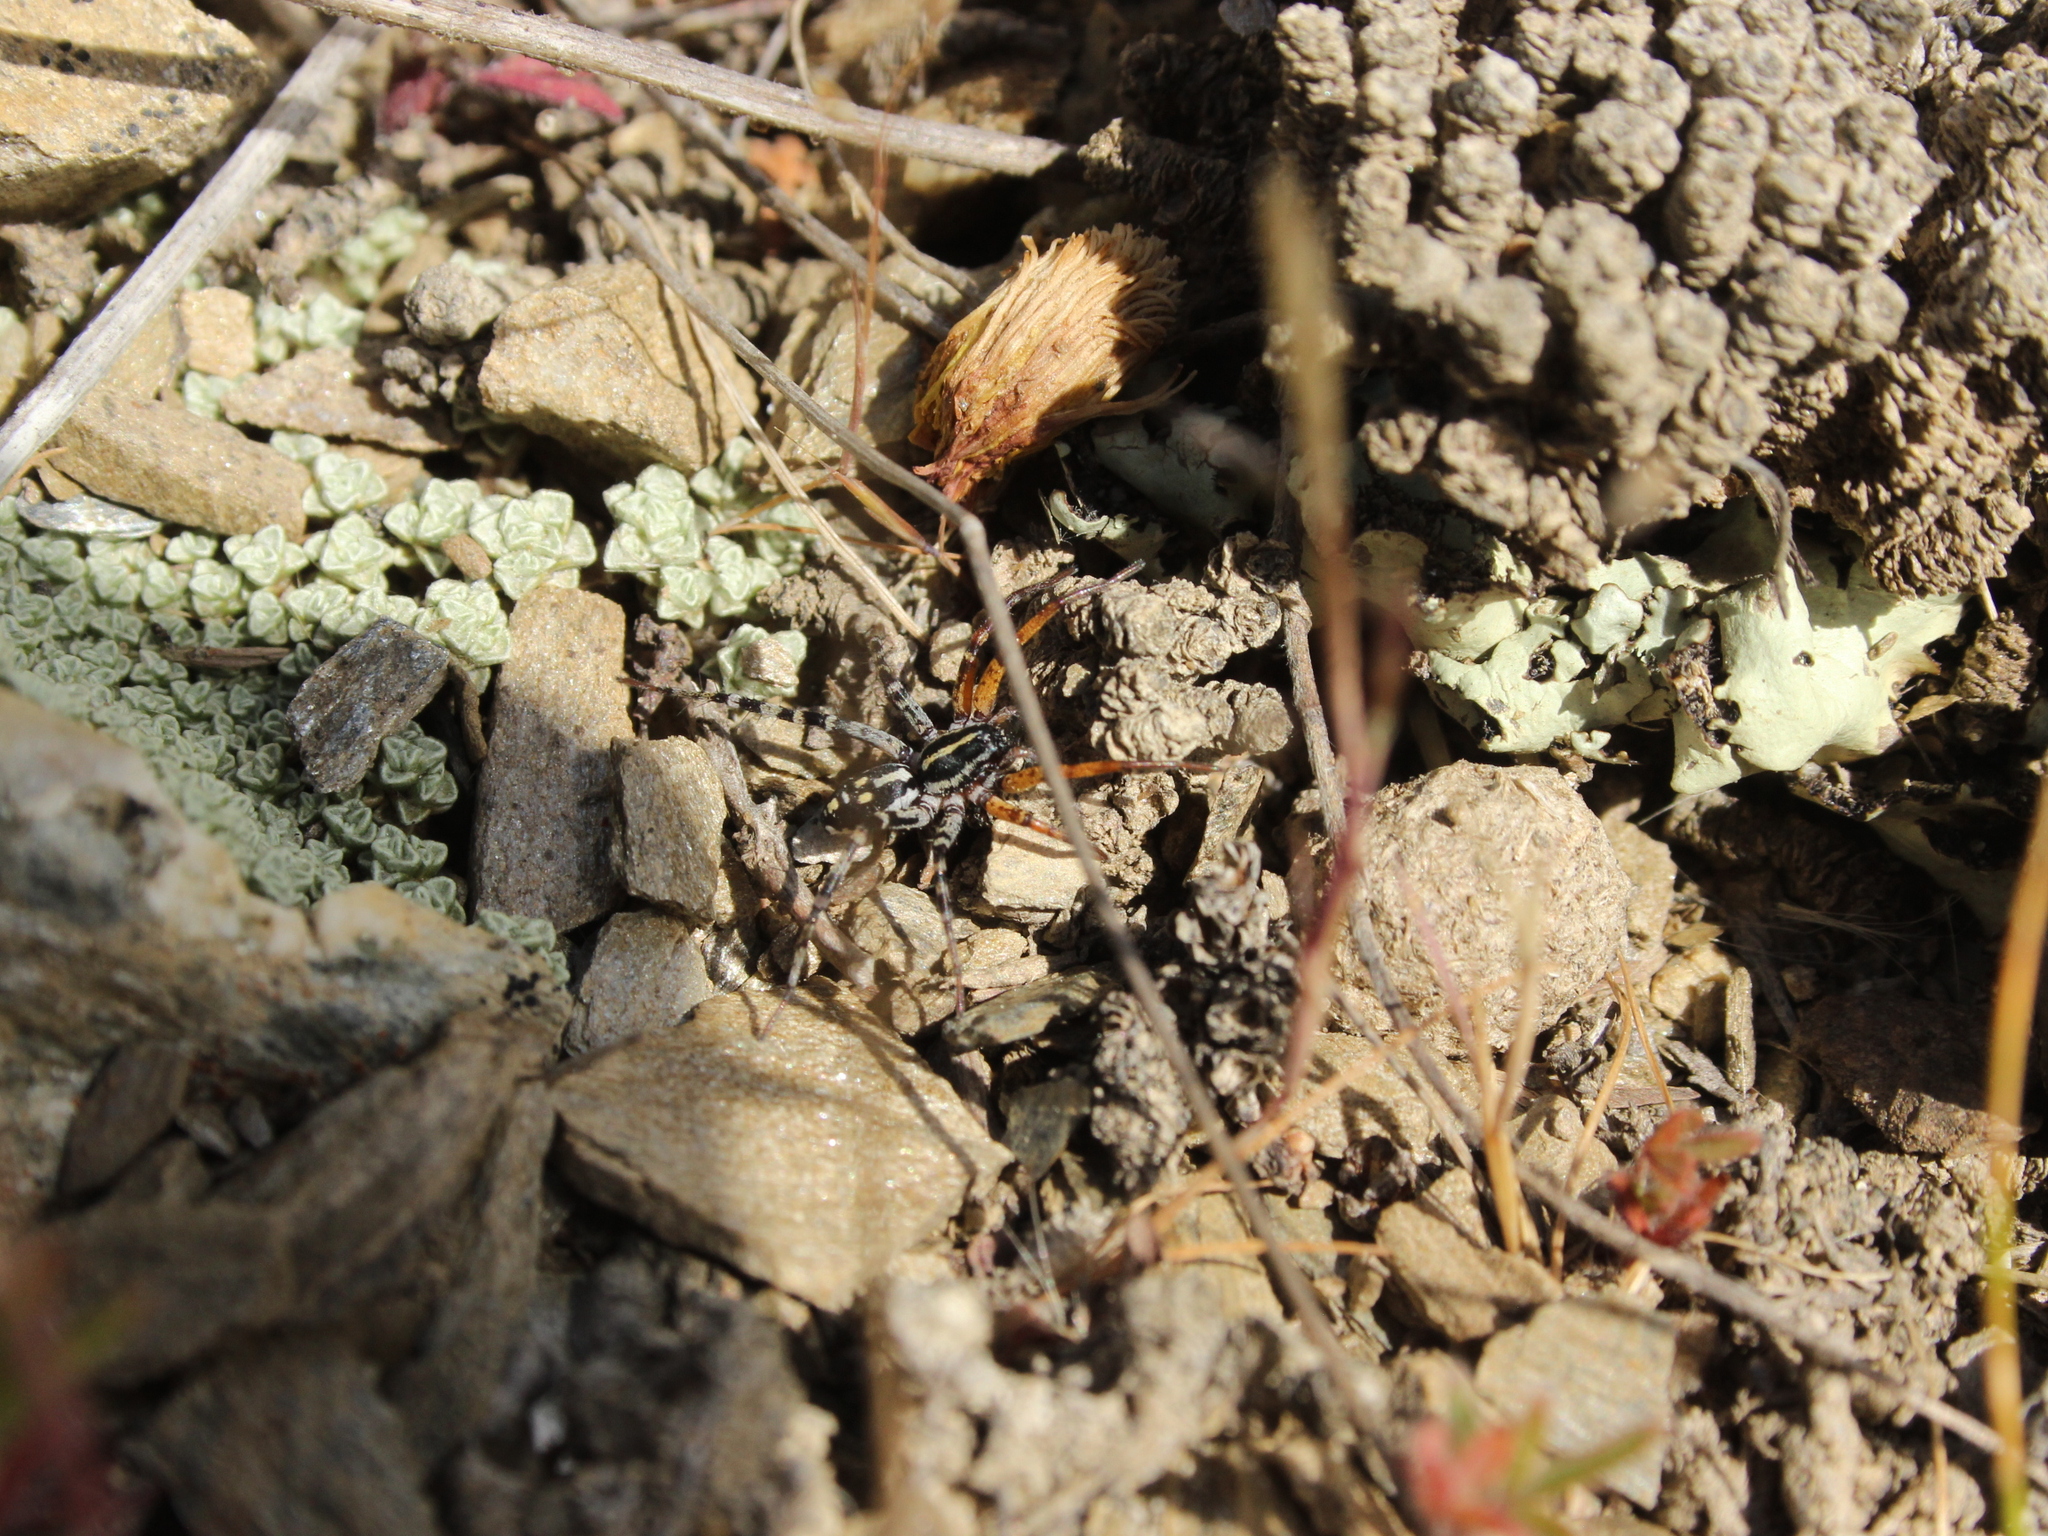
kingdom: Animalia
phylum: Arthropoda
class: Arachnida
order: Araneae
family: Corinnidae
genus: Nyssus
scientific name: Nyssus coloripes
